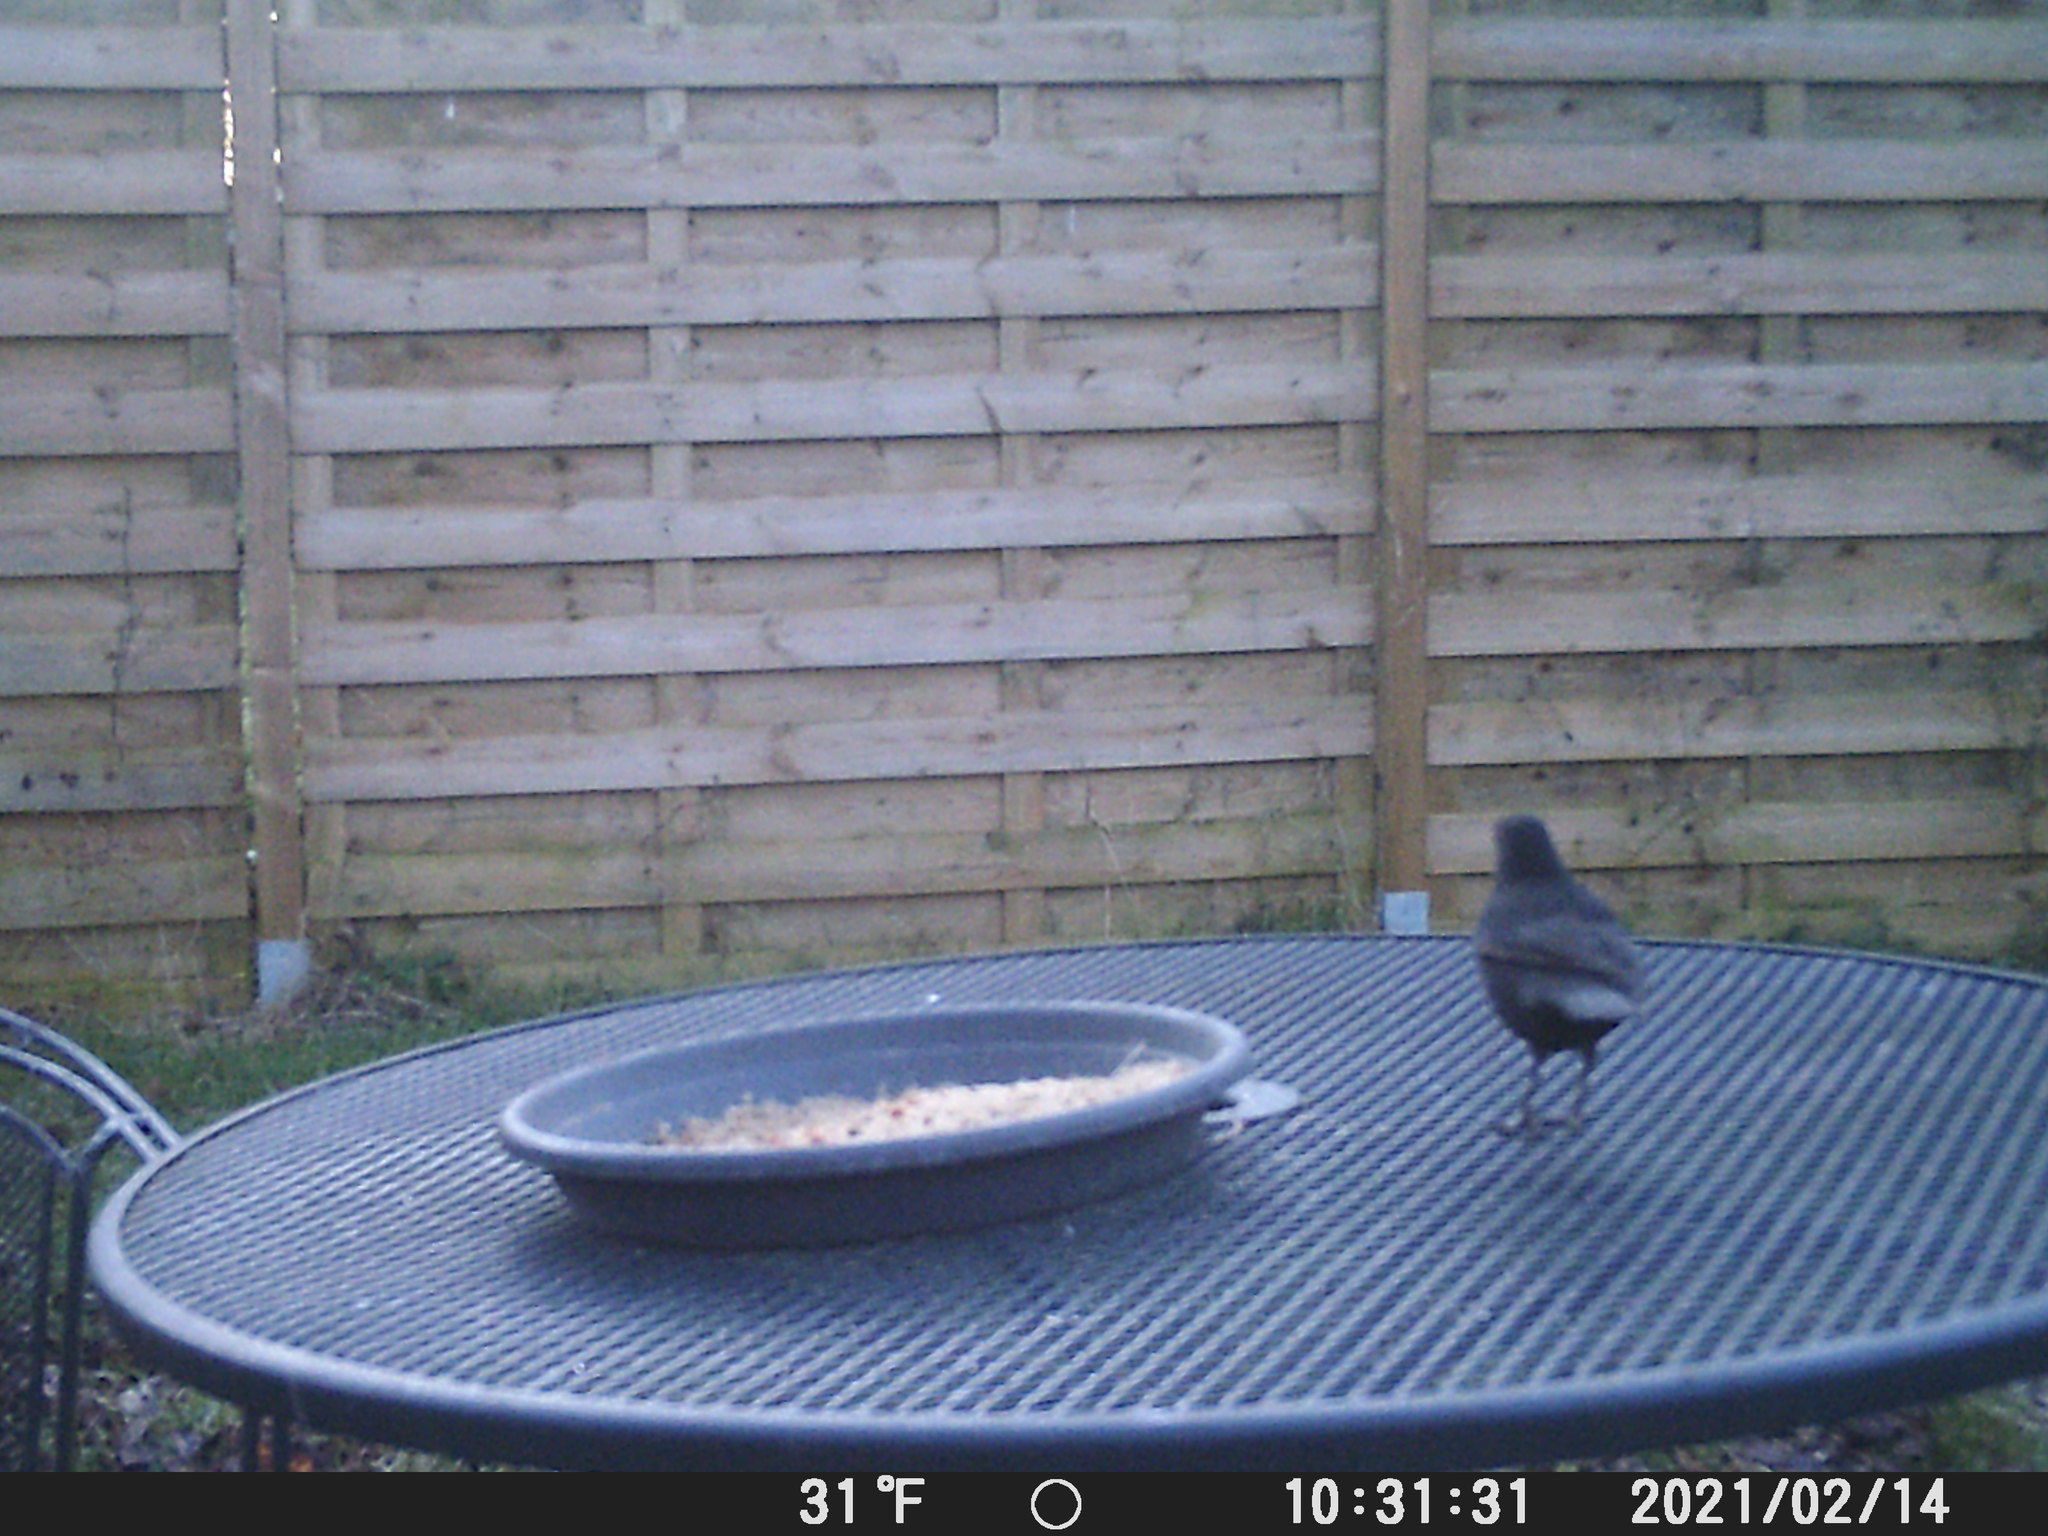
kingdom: Animalia
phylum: Chordata
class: Aves
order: Passeriformes
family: Turdidae
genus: Turdus
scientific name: Turdus merula
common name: Common blackbird
